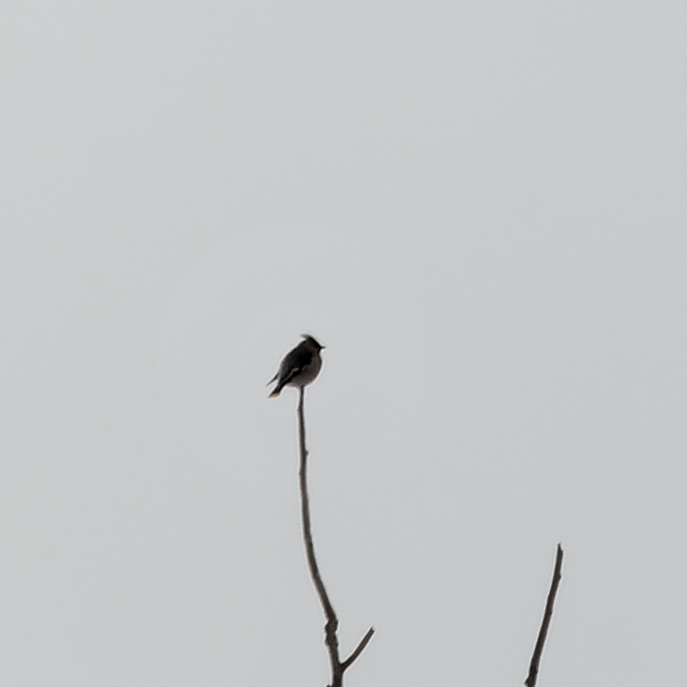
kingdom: Animalia
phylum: Chordata
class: Aves
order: Passeriformes
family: Bombycillidae
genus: Bombycilla
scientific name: Bombycilla garrulus
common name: Bohemian waxwing
